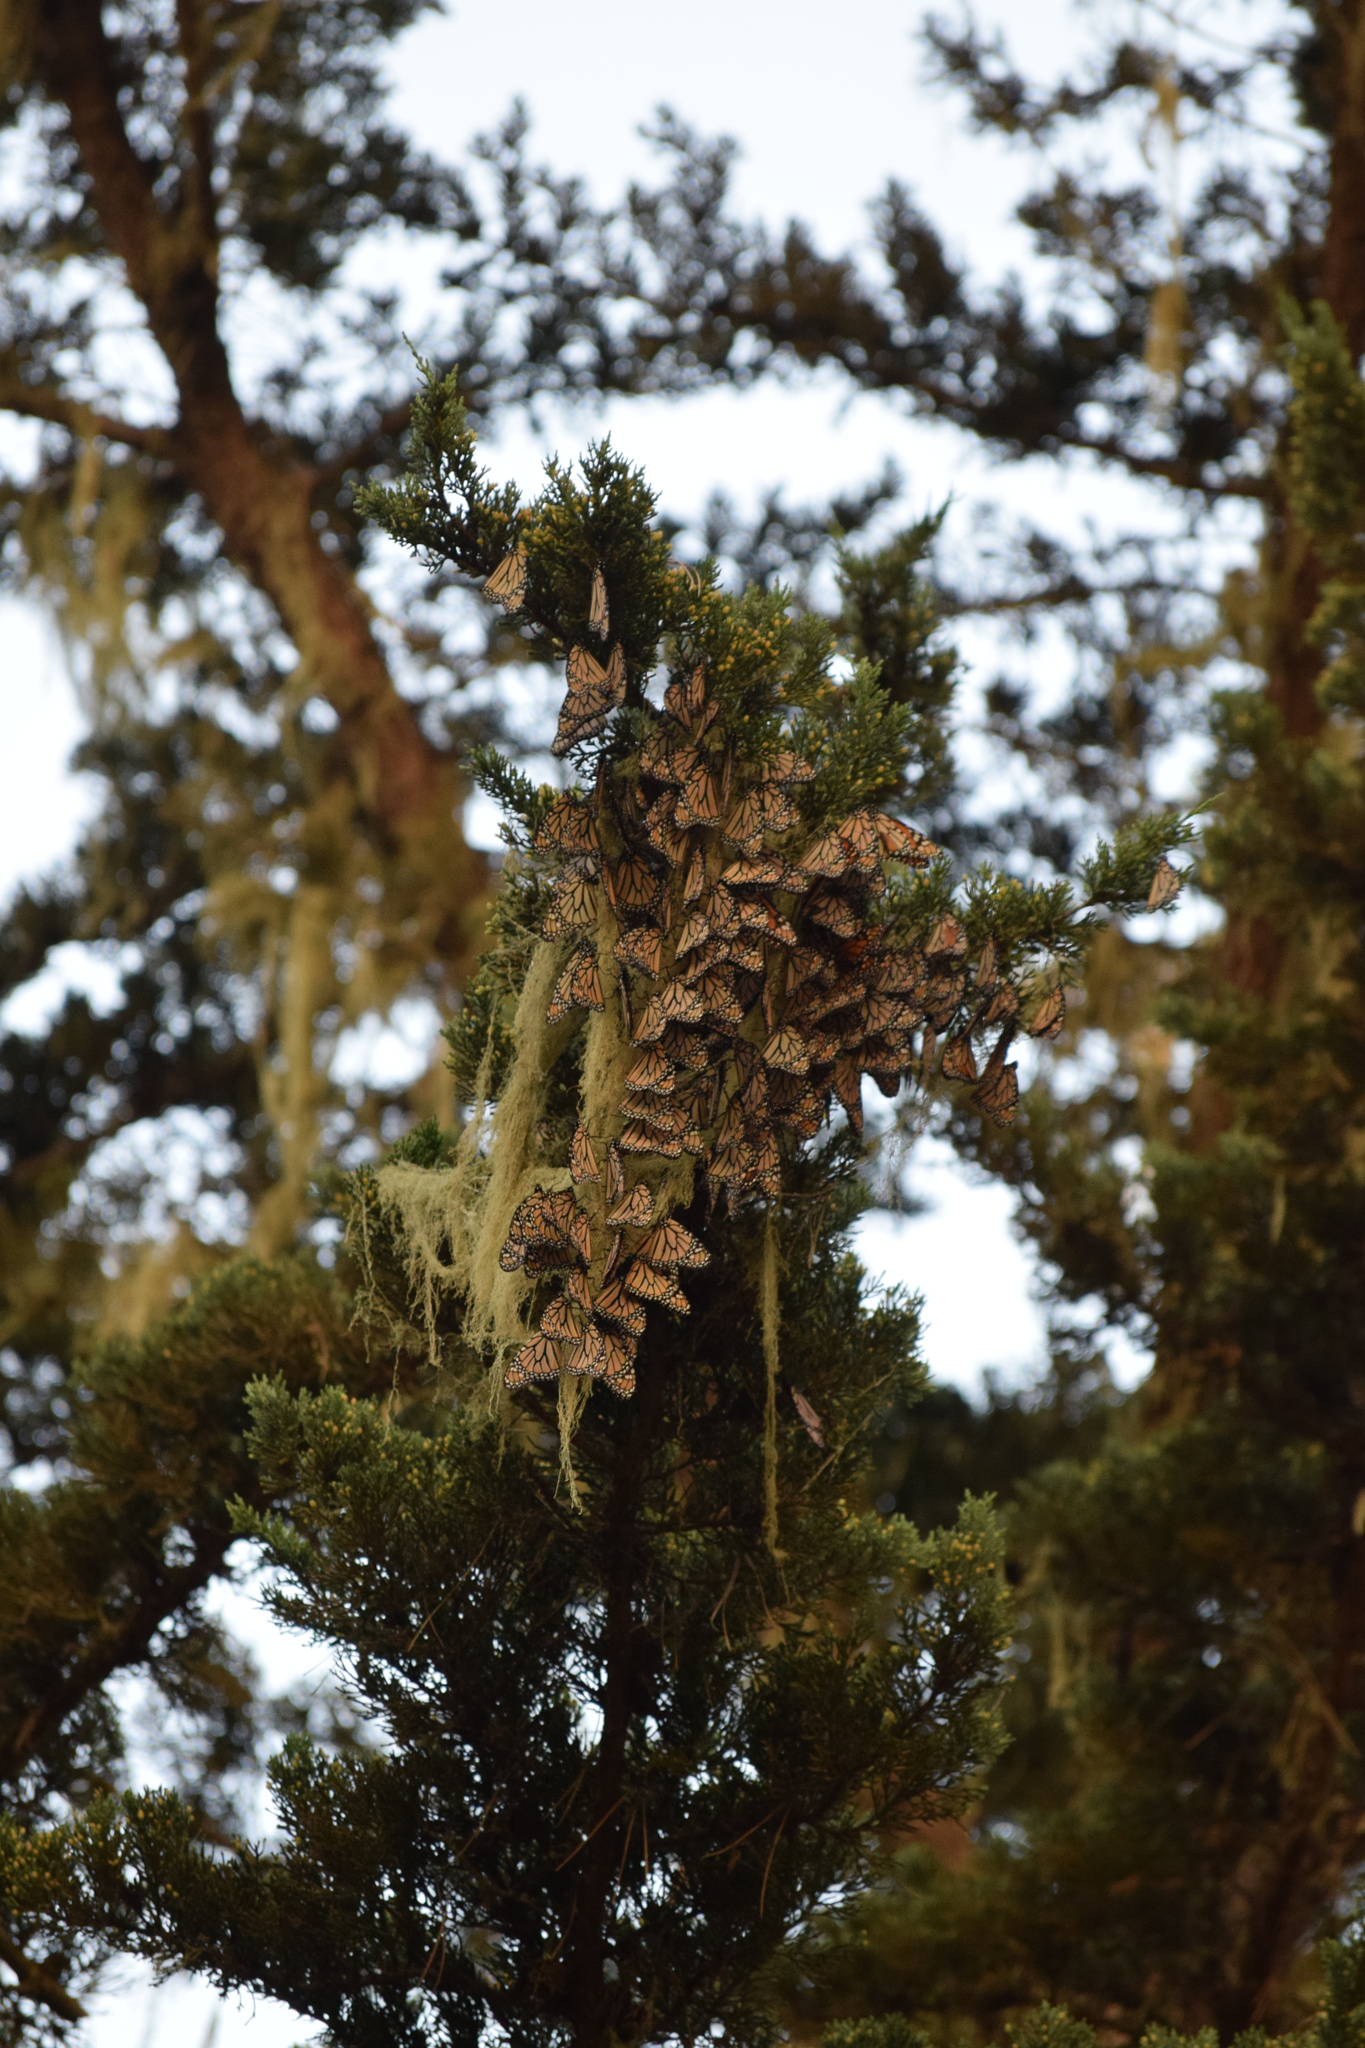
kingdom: Animalia
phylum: Arthropoda
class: Insecta
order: Lepidoptera
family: Nymphalidae
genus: Danaus
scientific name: Danaus plexippus
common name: Monarch
